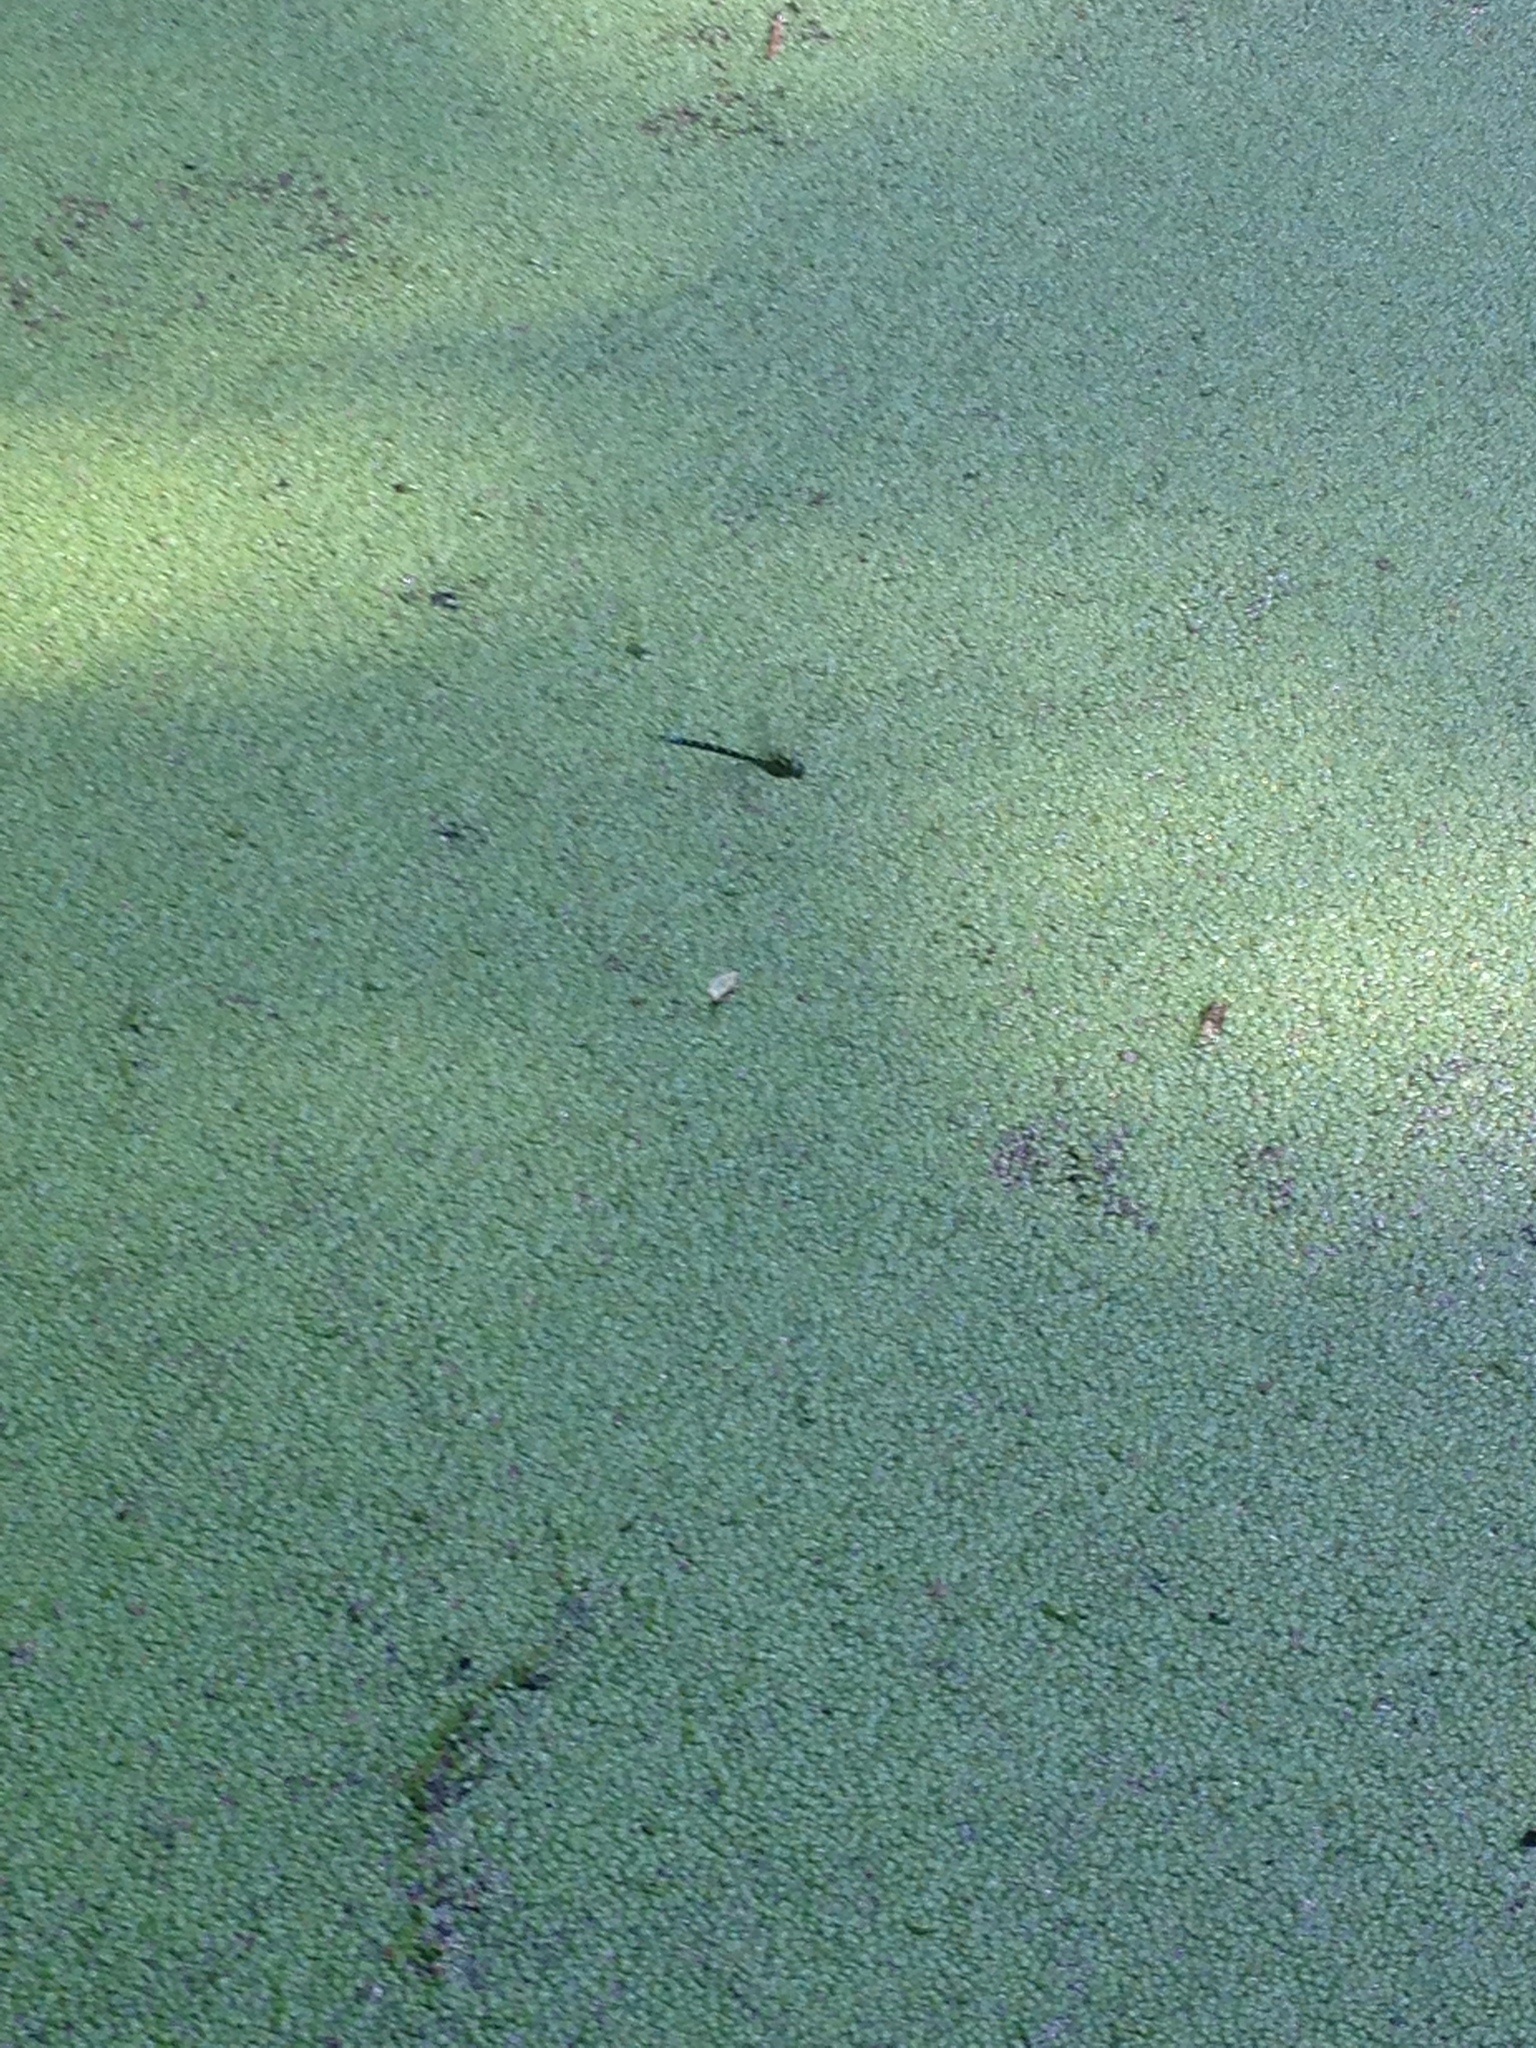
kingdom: Animalia
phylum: Arthropoda
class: Insecta
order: Odonata
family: Aeshnidae
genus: Aeshna
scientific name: Aeshna cyanea
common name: Southern hawker
